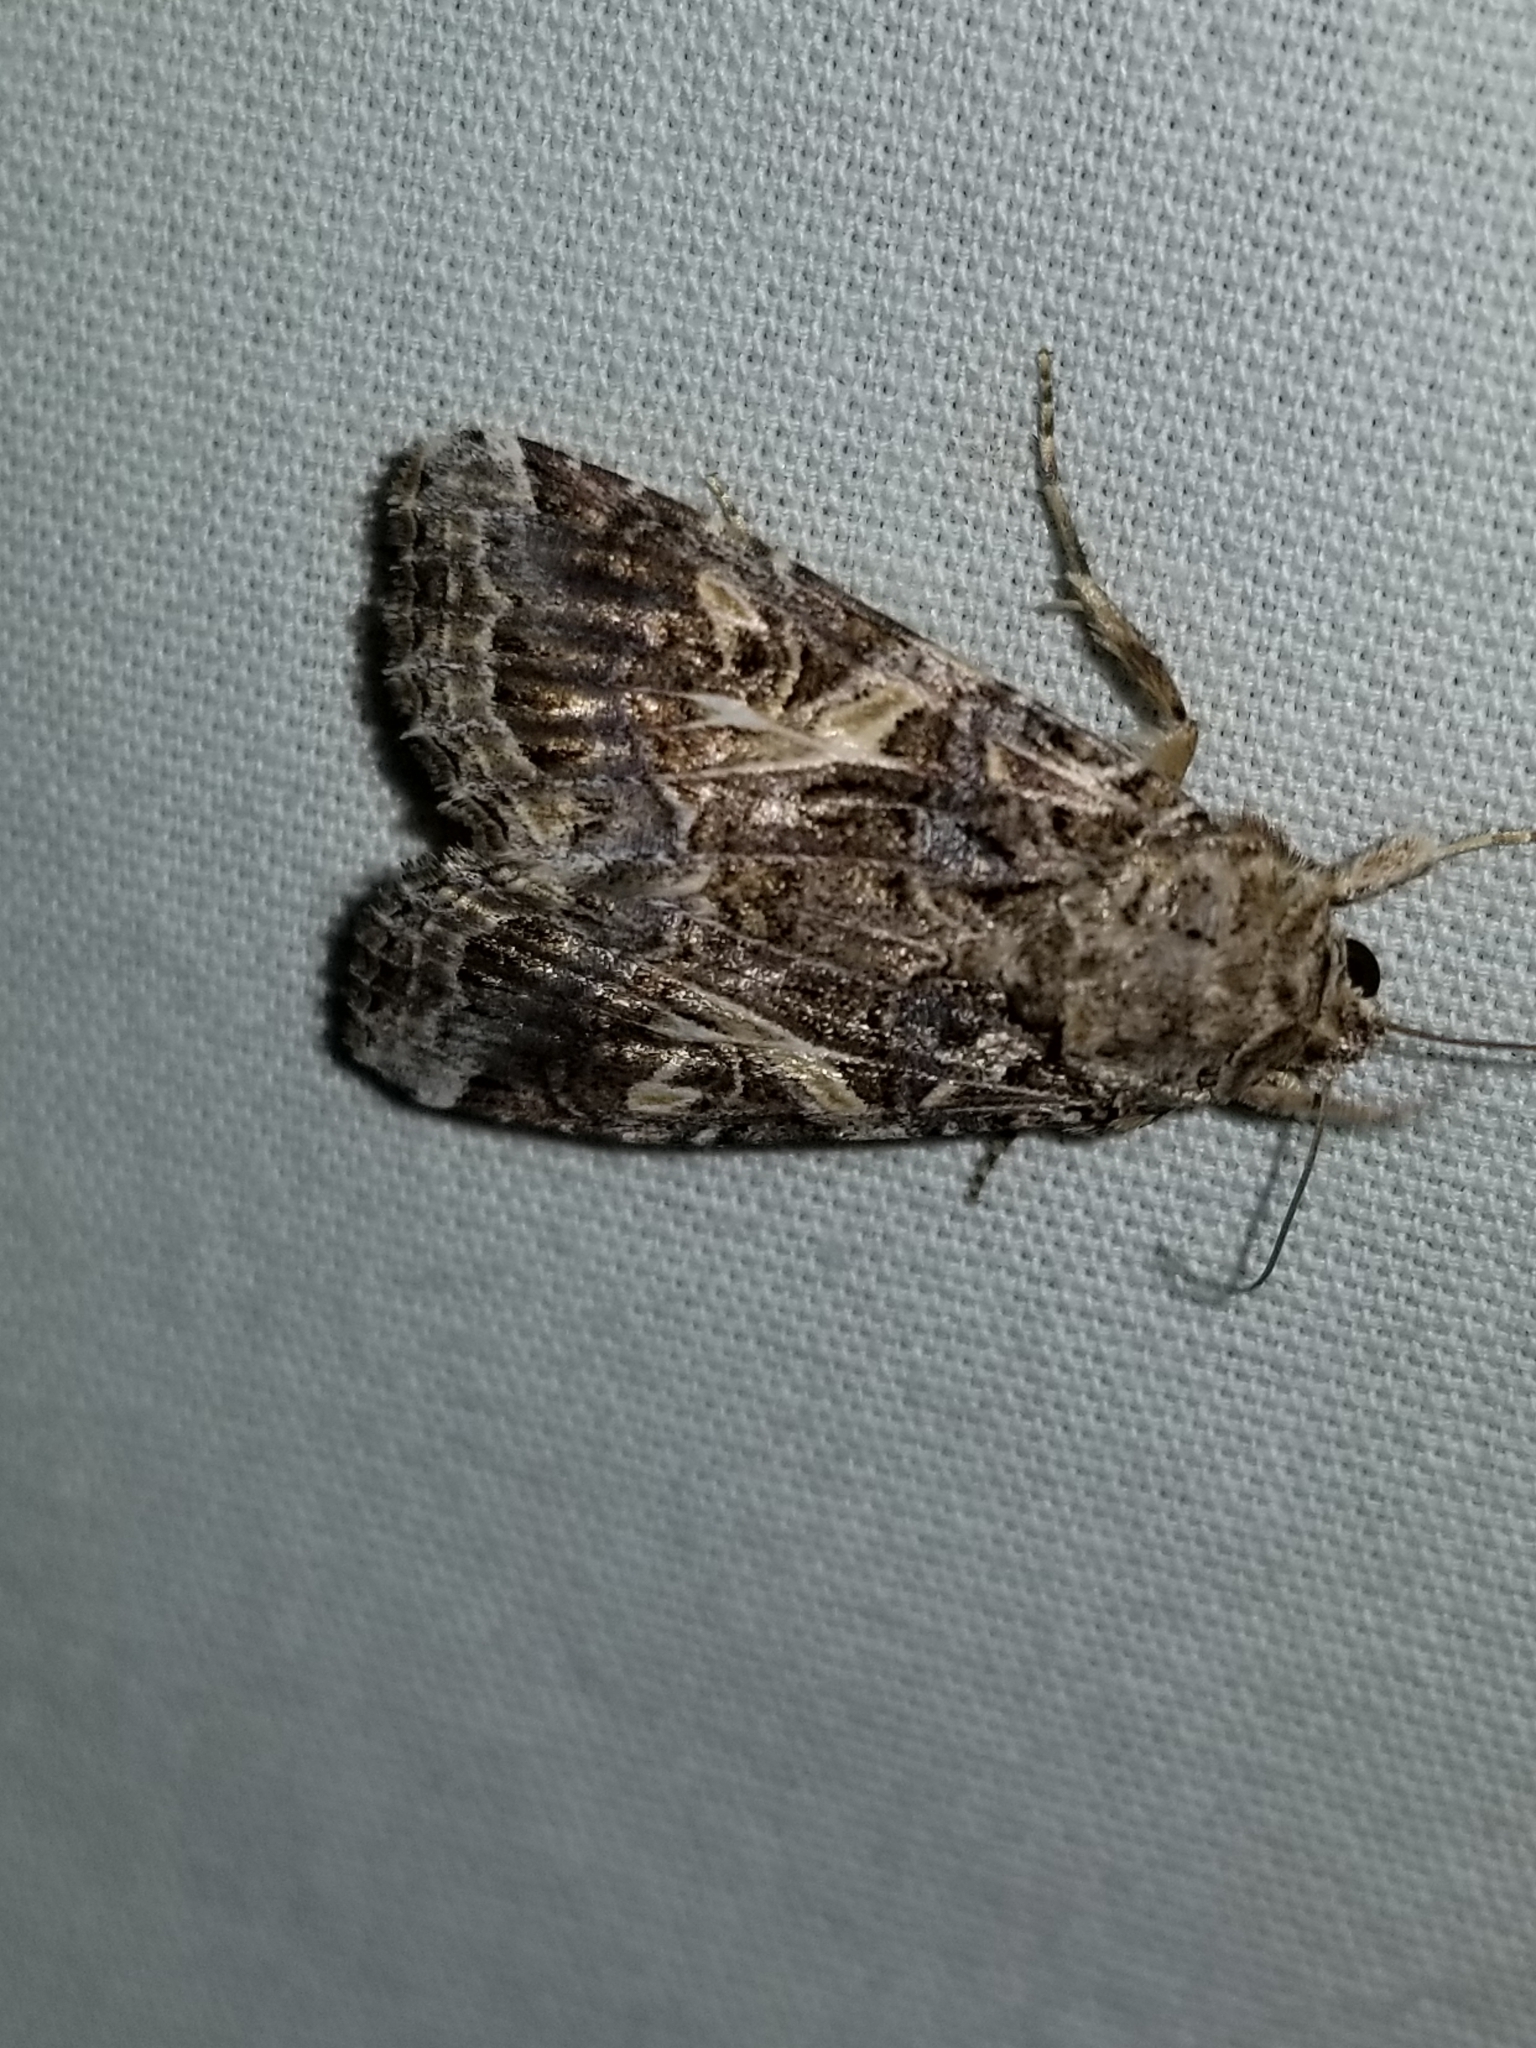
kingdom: Animalia
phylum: Arthropoda
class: Insecta
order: Lepidoptera
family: Noctuidae
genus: Spodoptera
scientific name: Spodoptera ornithogalli
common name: Yellow-striped armyworm
